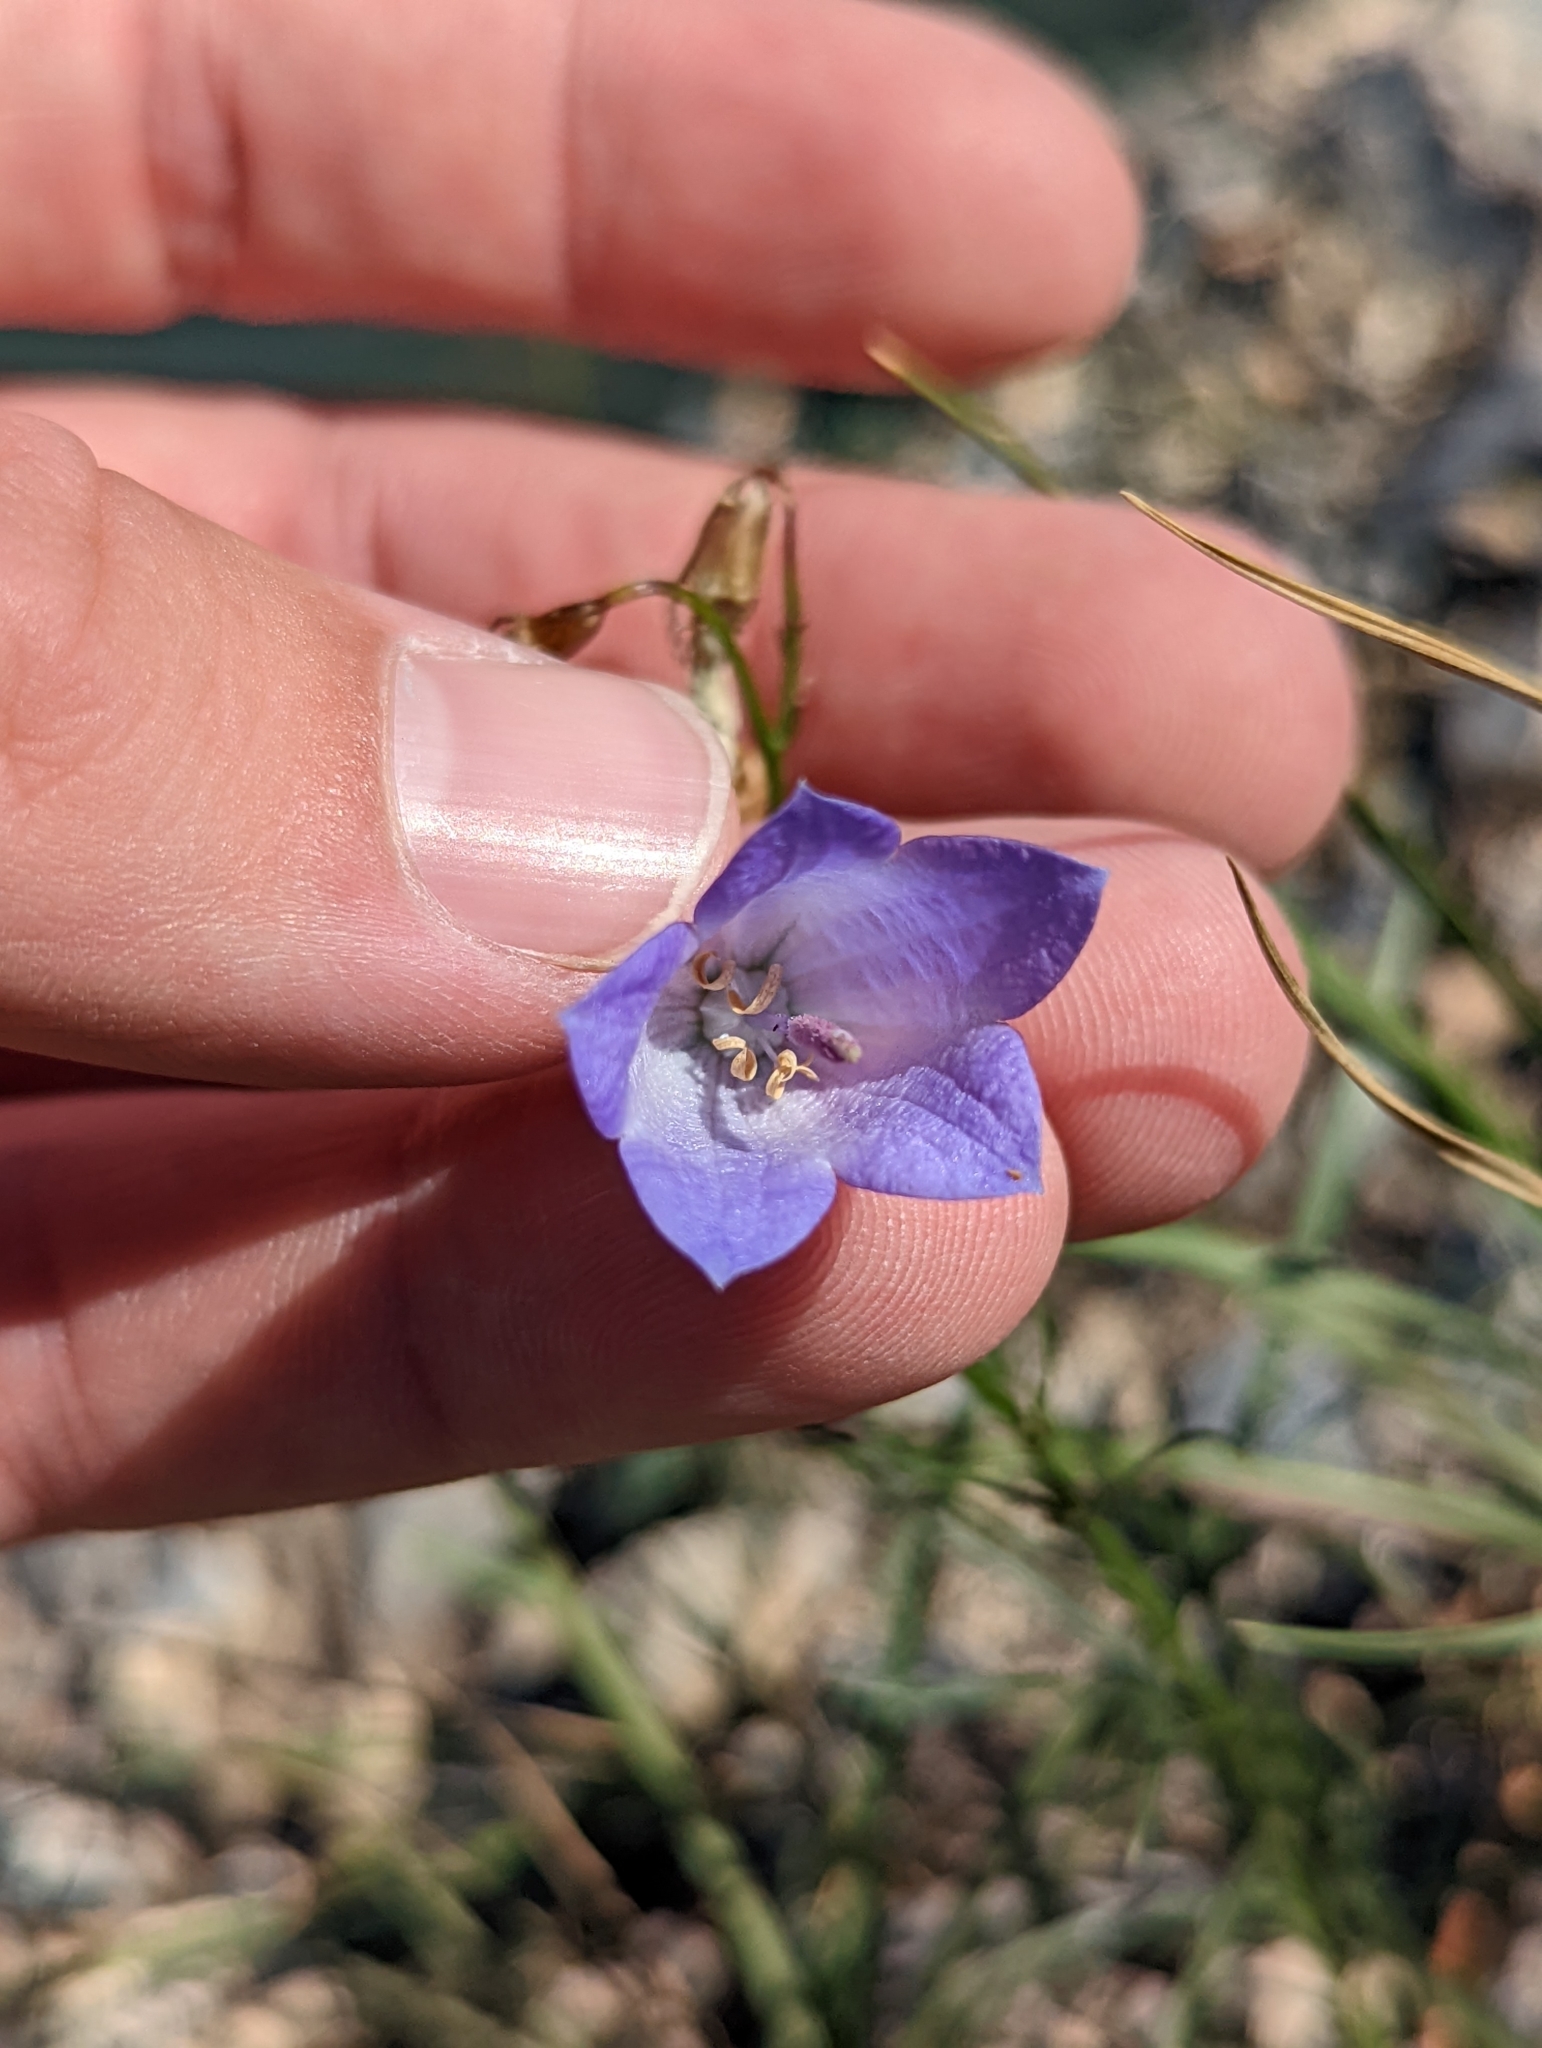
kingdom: Plantae
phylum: Tracheophyta
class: Magnoliopsida
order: Asterales
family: Campanulaceae
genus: Campanula
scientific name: Campanula alaskana
